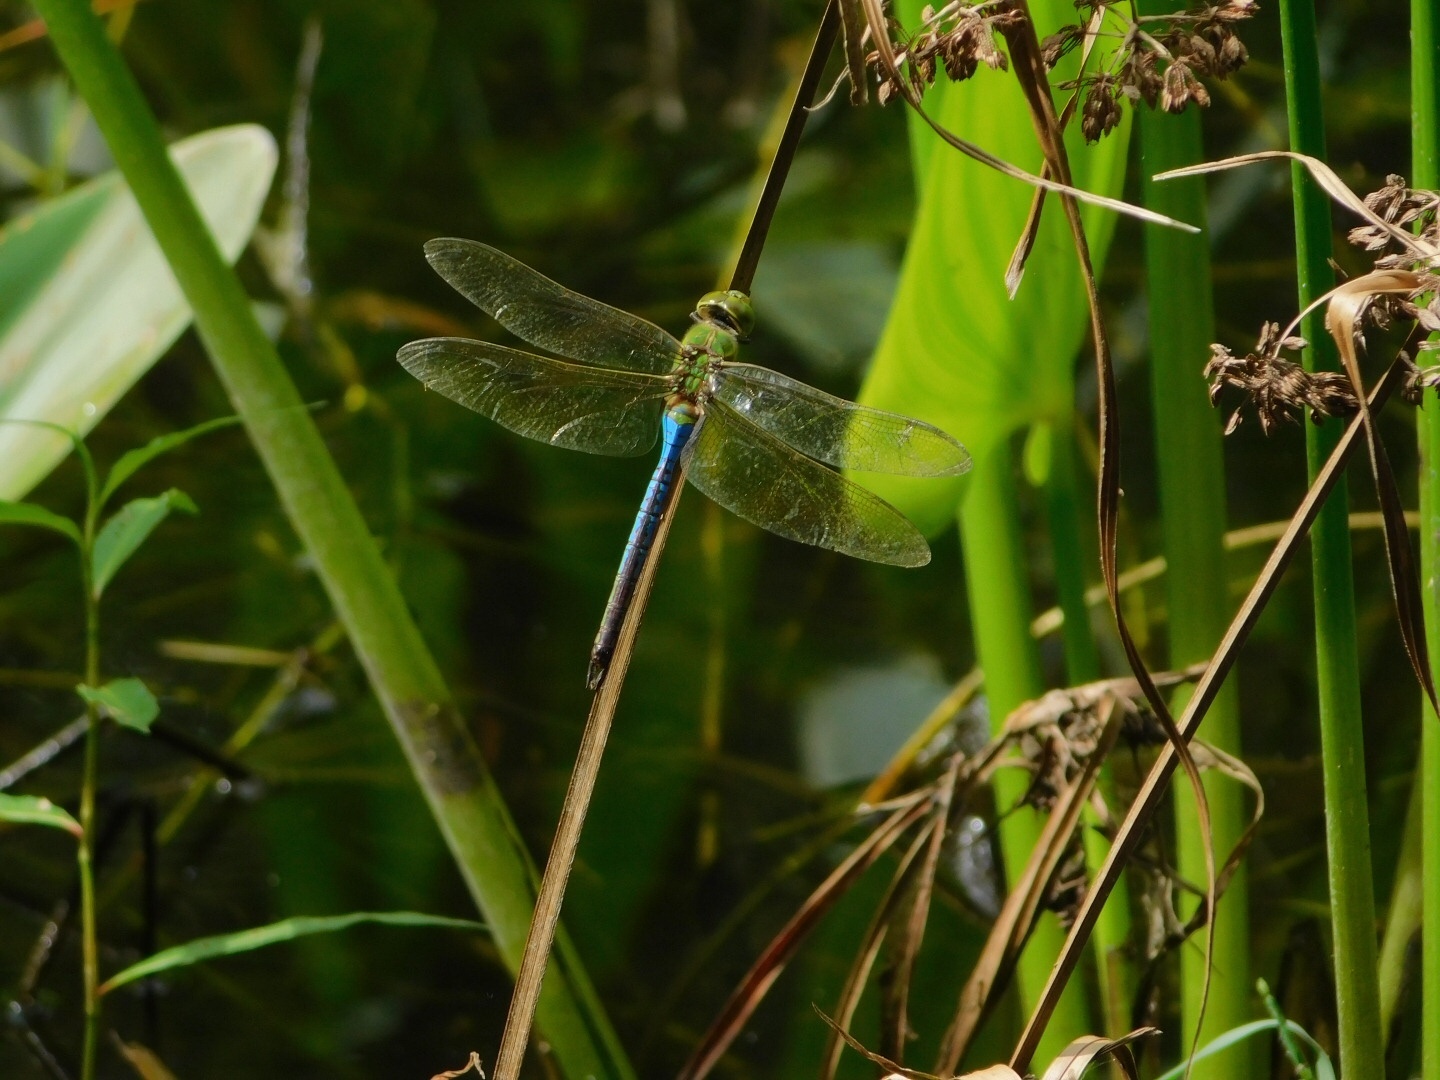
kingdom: Animalia
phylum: Arthropoda
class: Insecta
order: Odonata
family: Aeshnidae
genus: Anax
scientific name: Anax junius
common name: Common green darner
